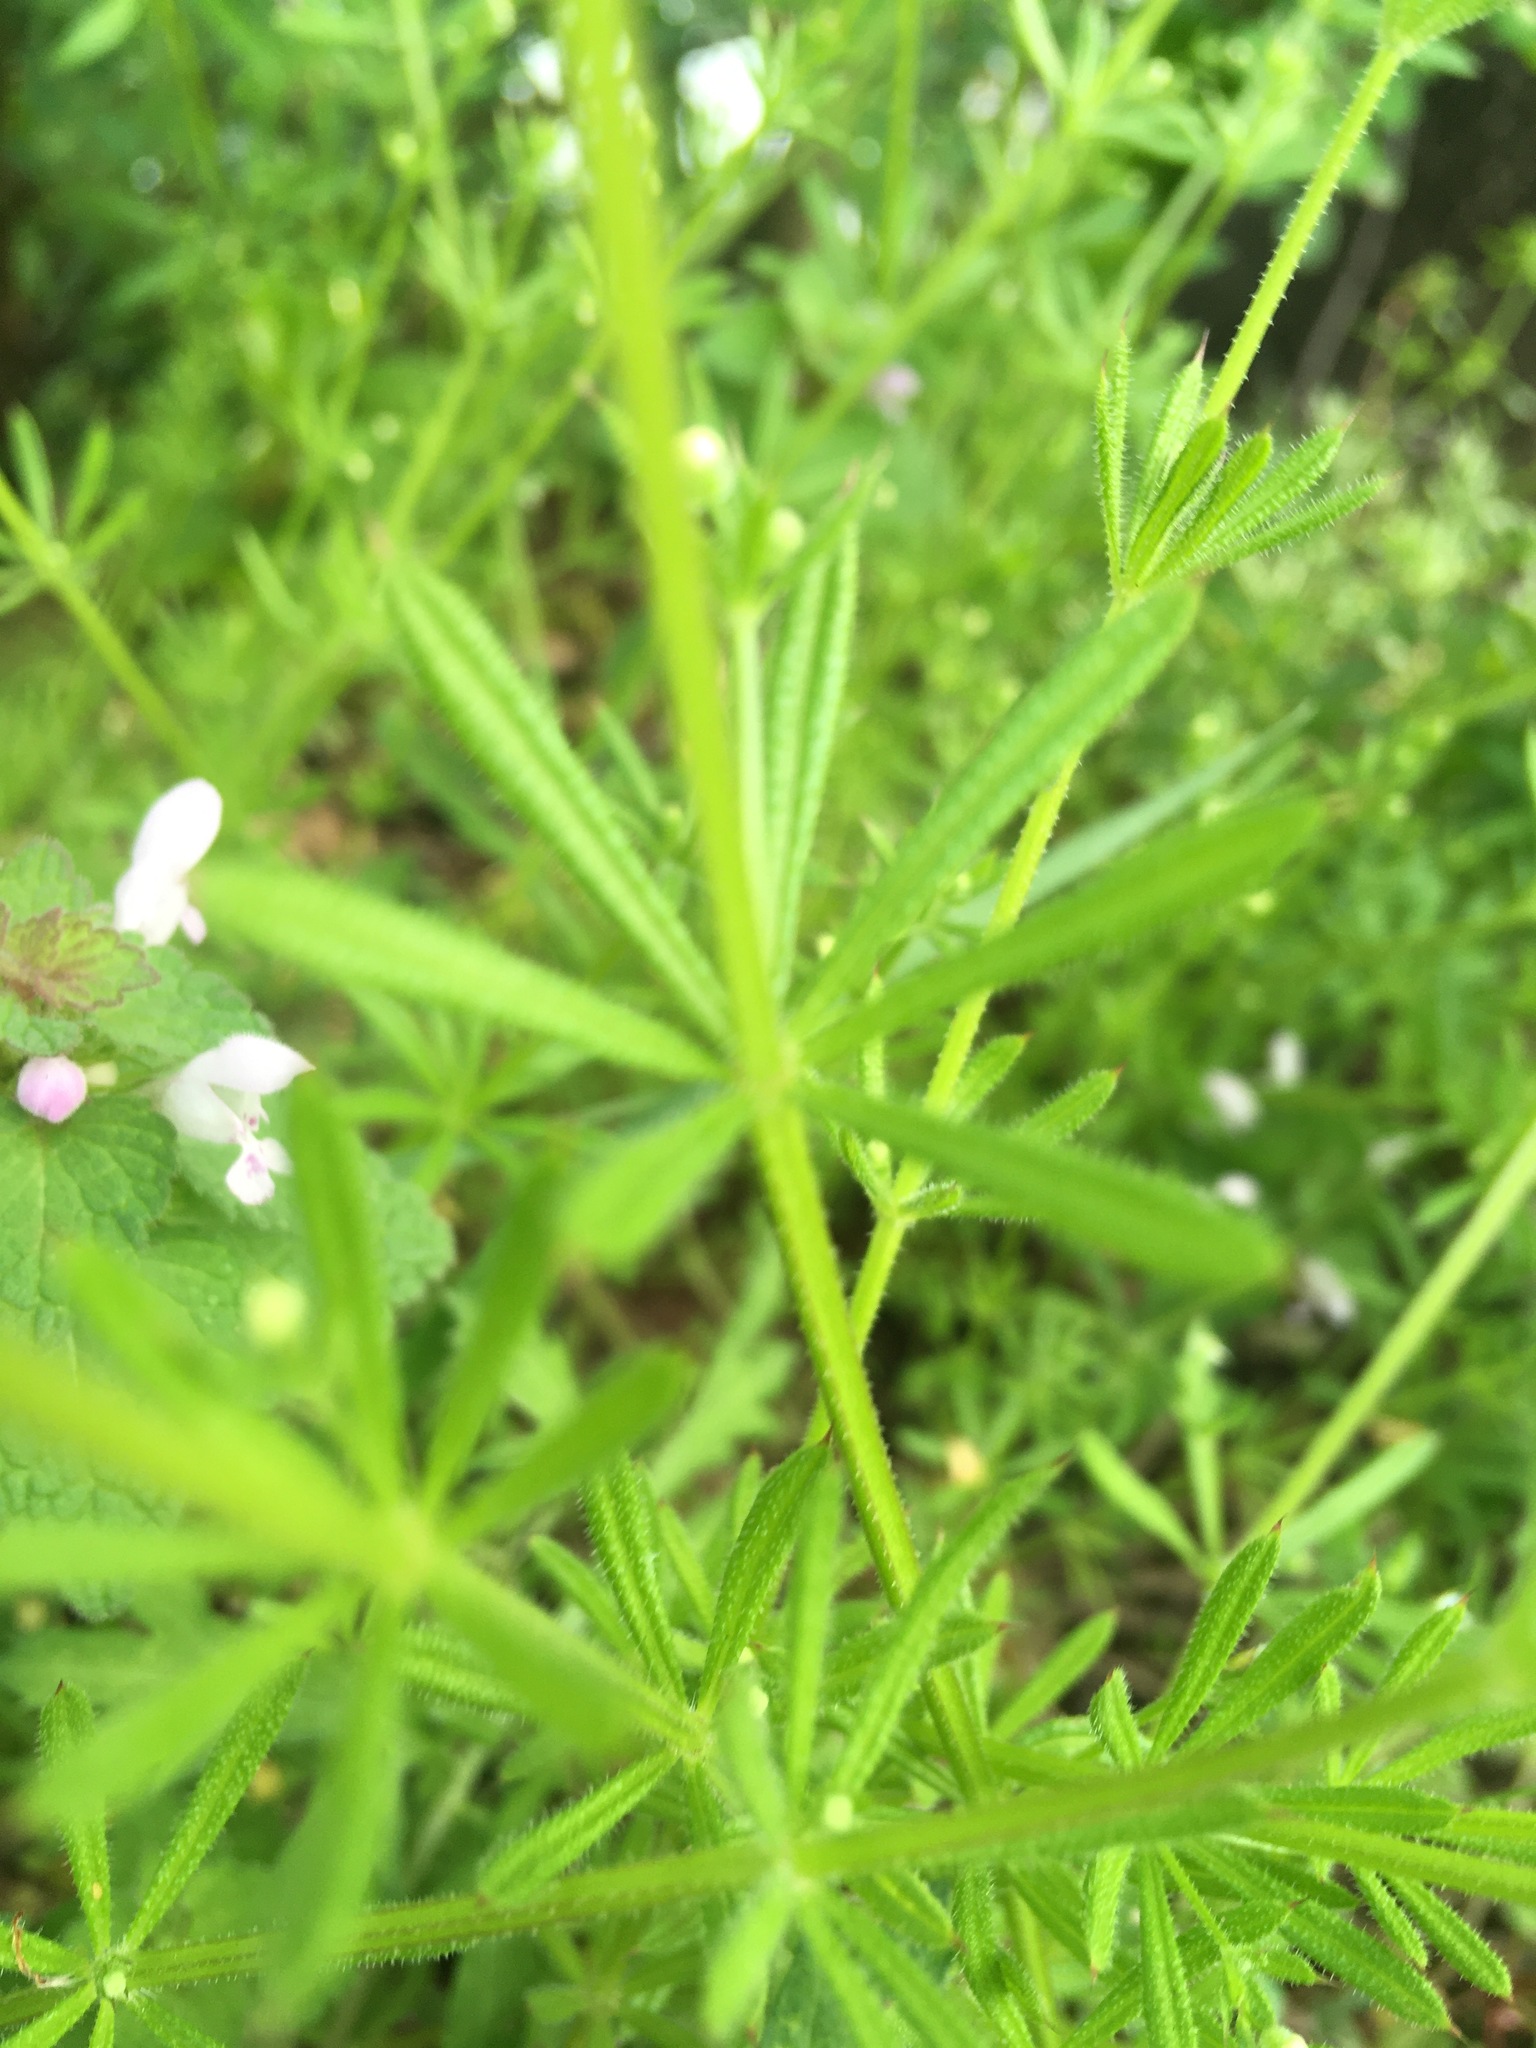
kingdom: Plantae
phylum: Tracheophyta
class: Magnoliopsida
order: Gentianales
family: Rubiaceae
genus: Galium
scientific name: Galium aparine
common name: Cleavers
